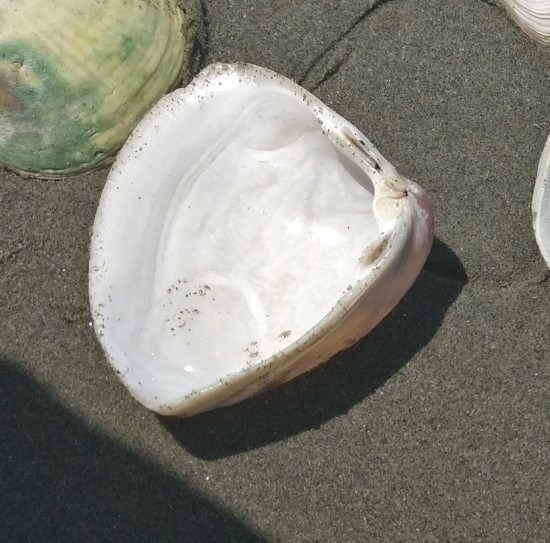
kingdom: Animalia
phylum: Mollusca
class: Bivalvia
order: Venerida
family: Mactridae
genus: Crassula
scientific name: Crassula aequilatera
